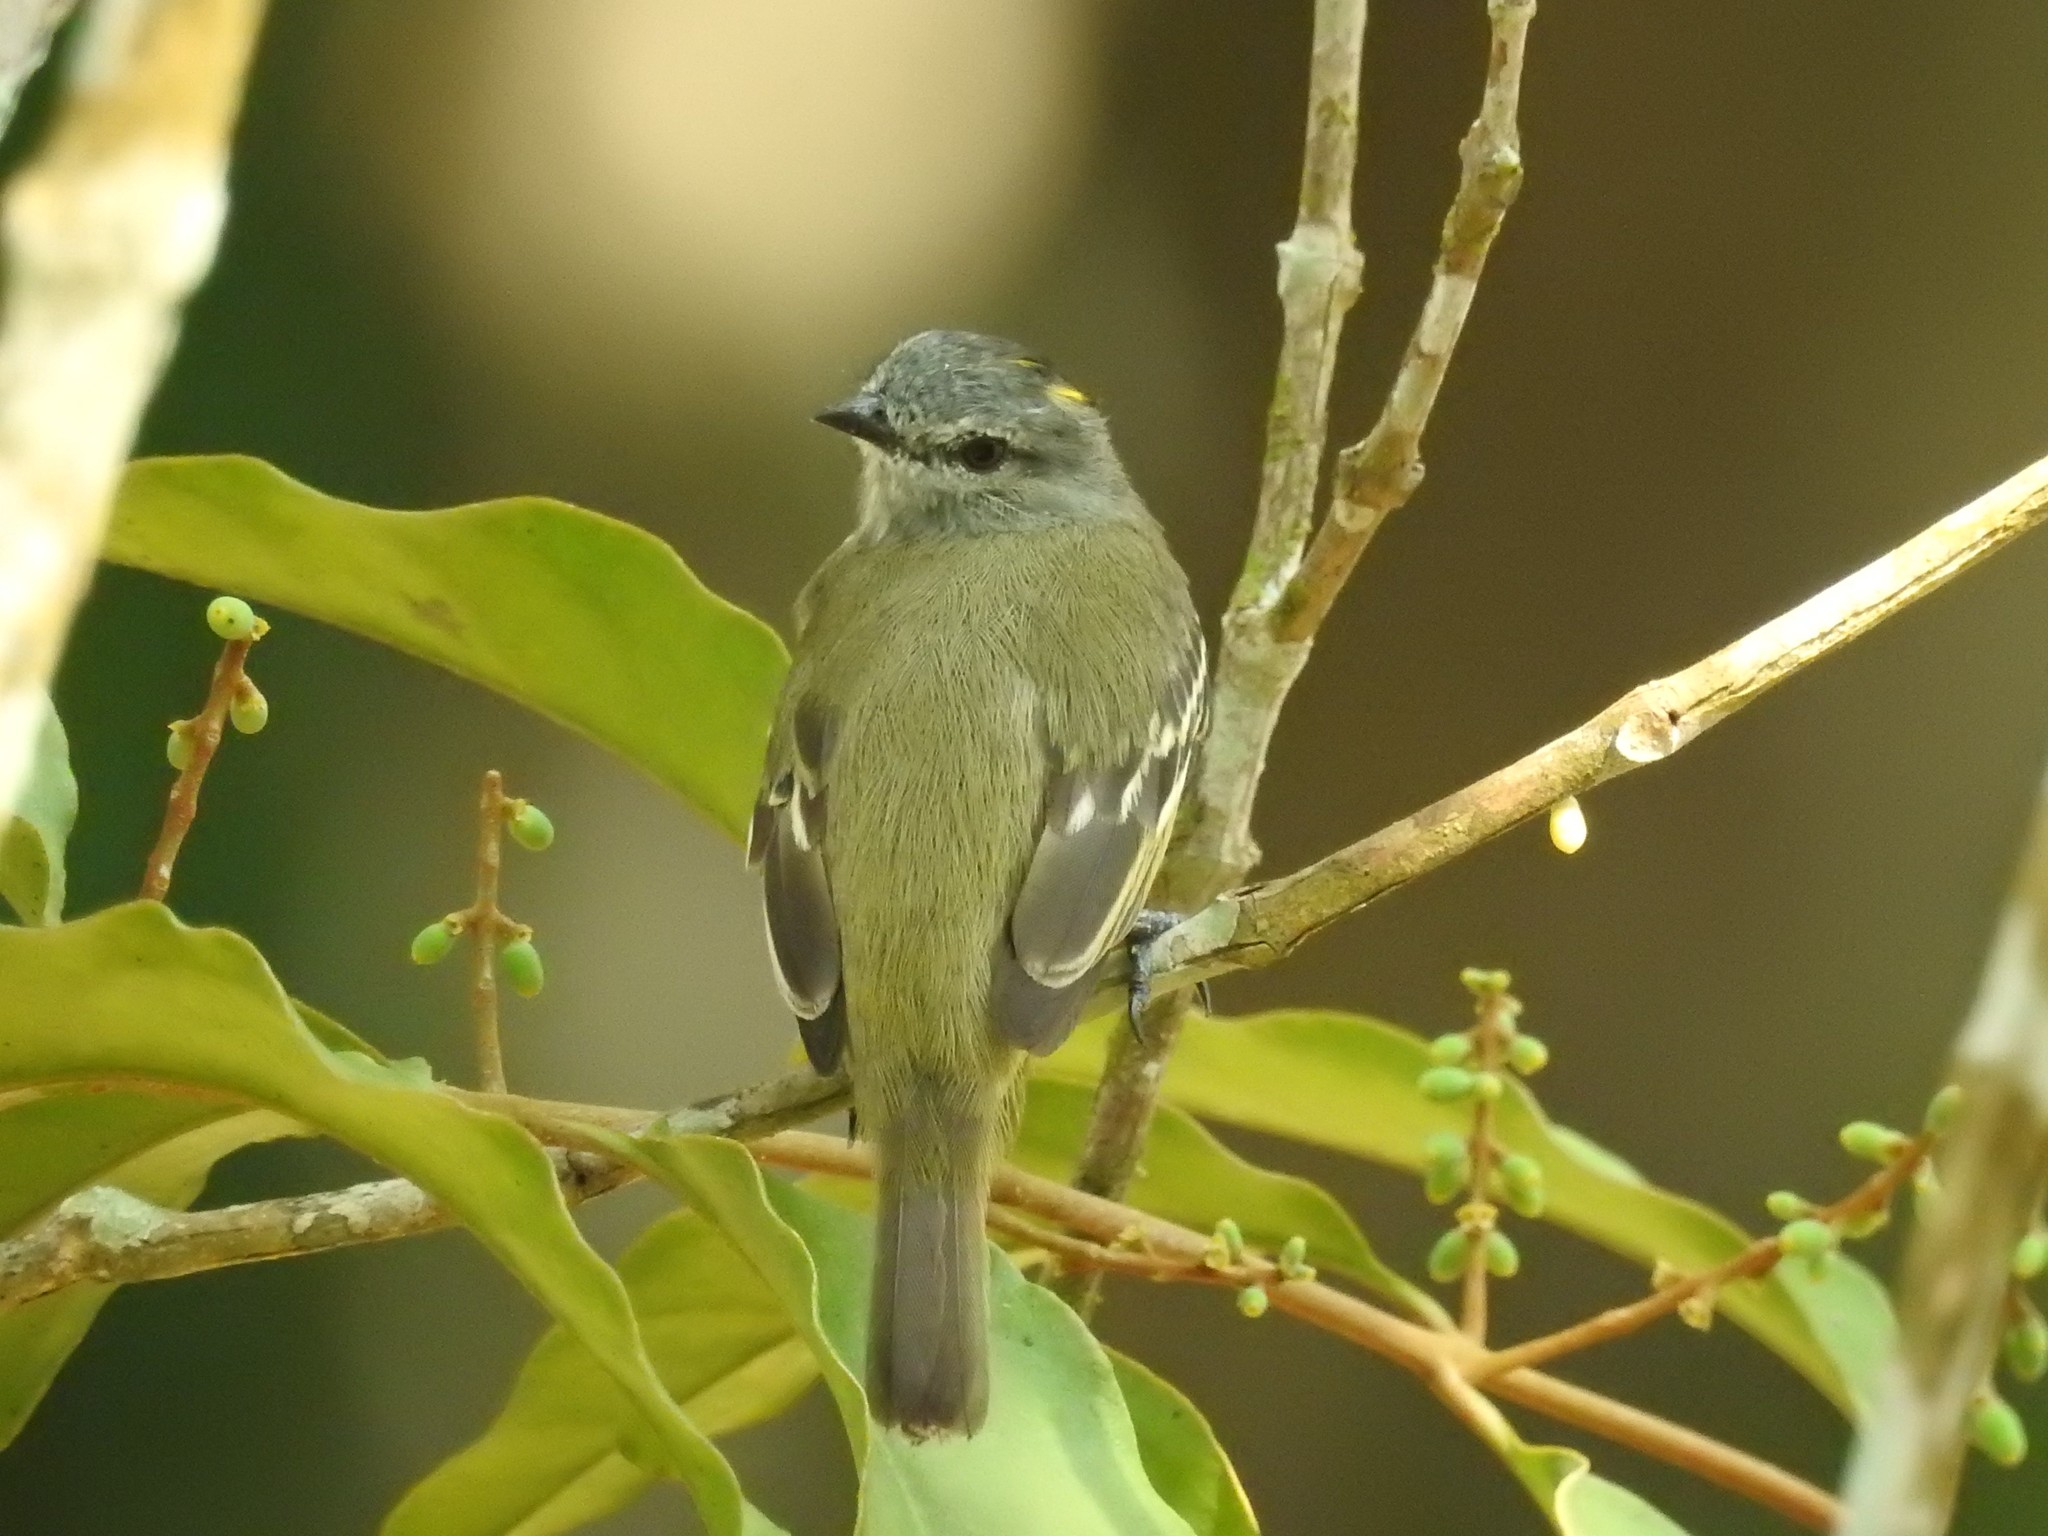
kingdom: Animalia
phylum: Chordata
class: Aves
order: Passeriformes
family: Tyrannidae
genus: Tyrannulus
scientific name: Tyrannulus elatus
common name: Yellow-crowned tyrannulet
